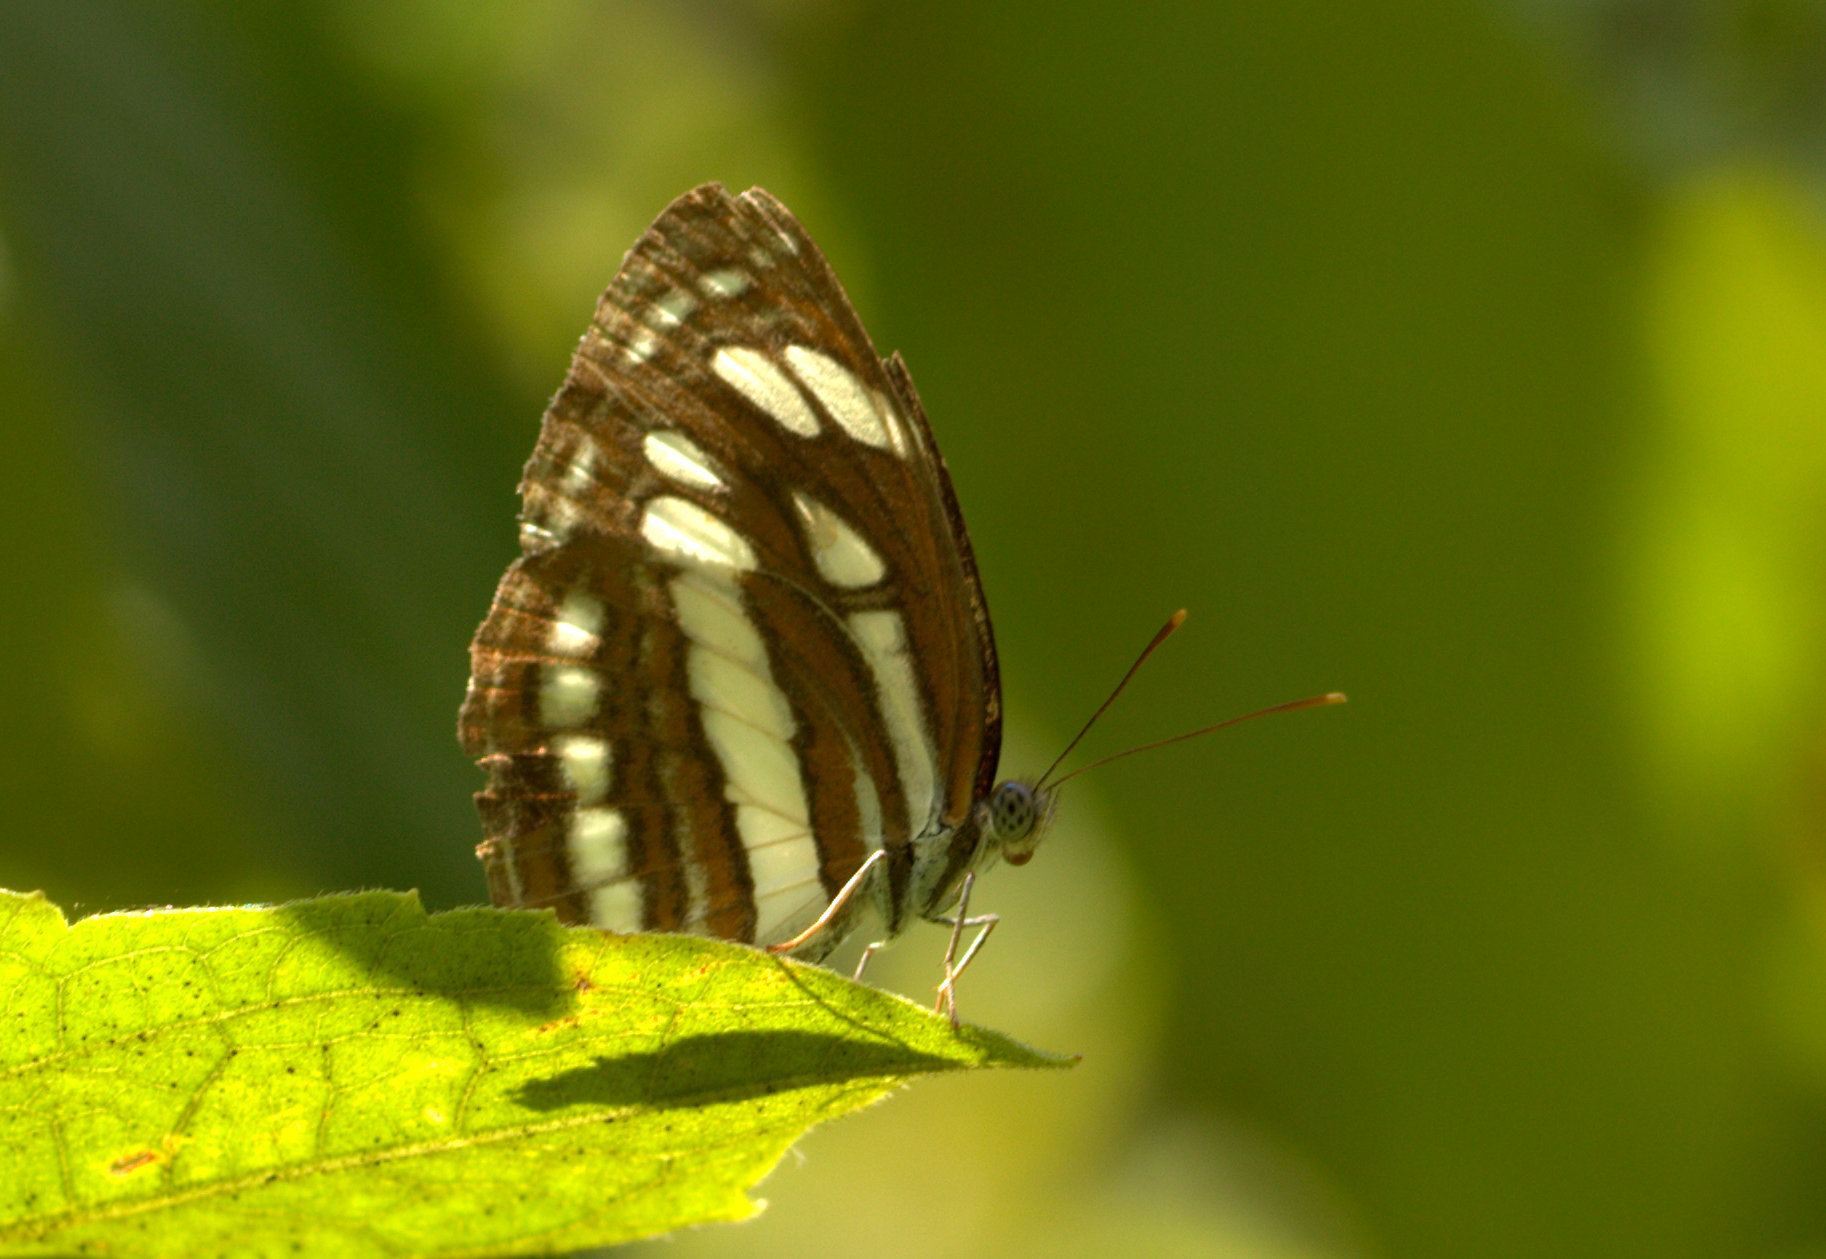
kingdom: Animalia
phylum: Arthropoda
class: Insecta
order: Lepidoptera
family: Nymphalidae
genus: Neptis
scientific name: Neptis hylas
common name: Common sailer
